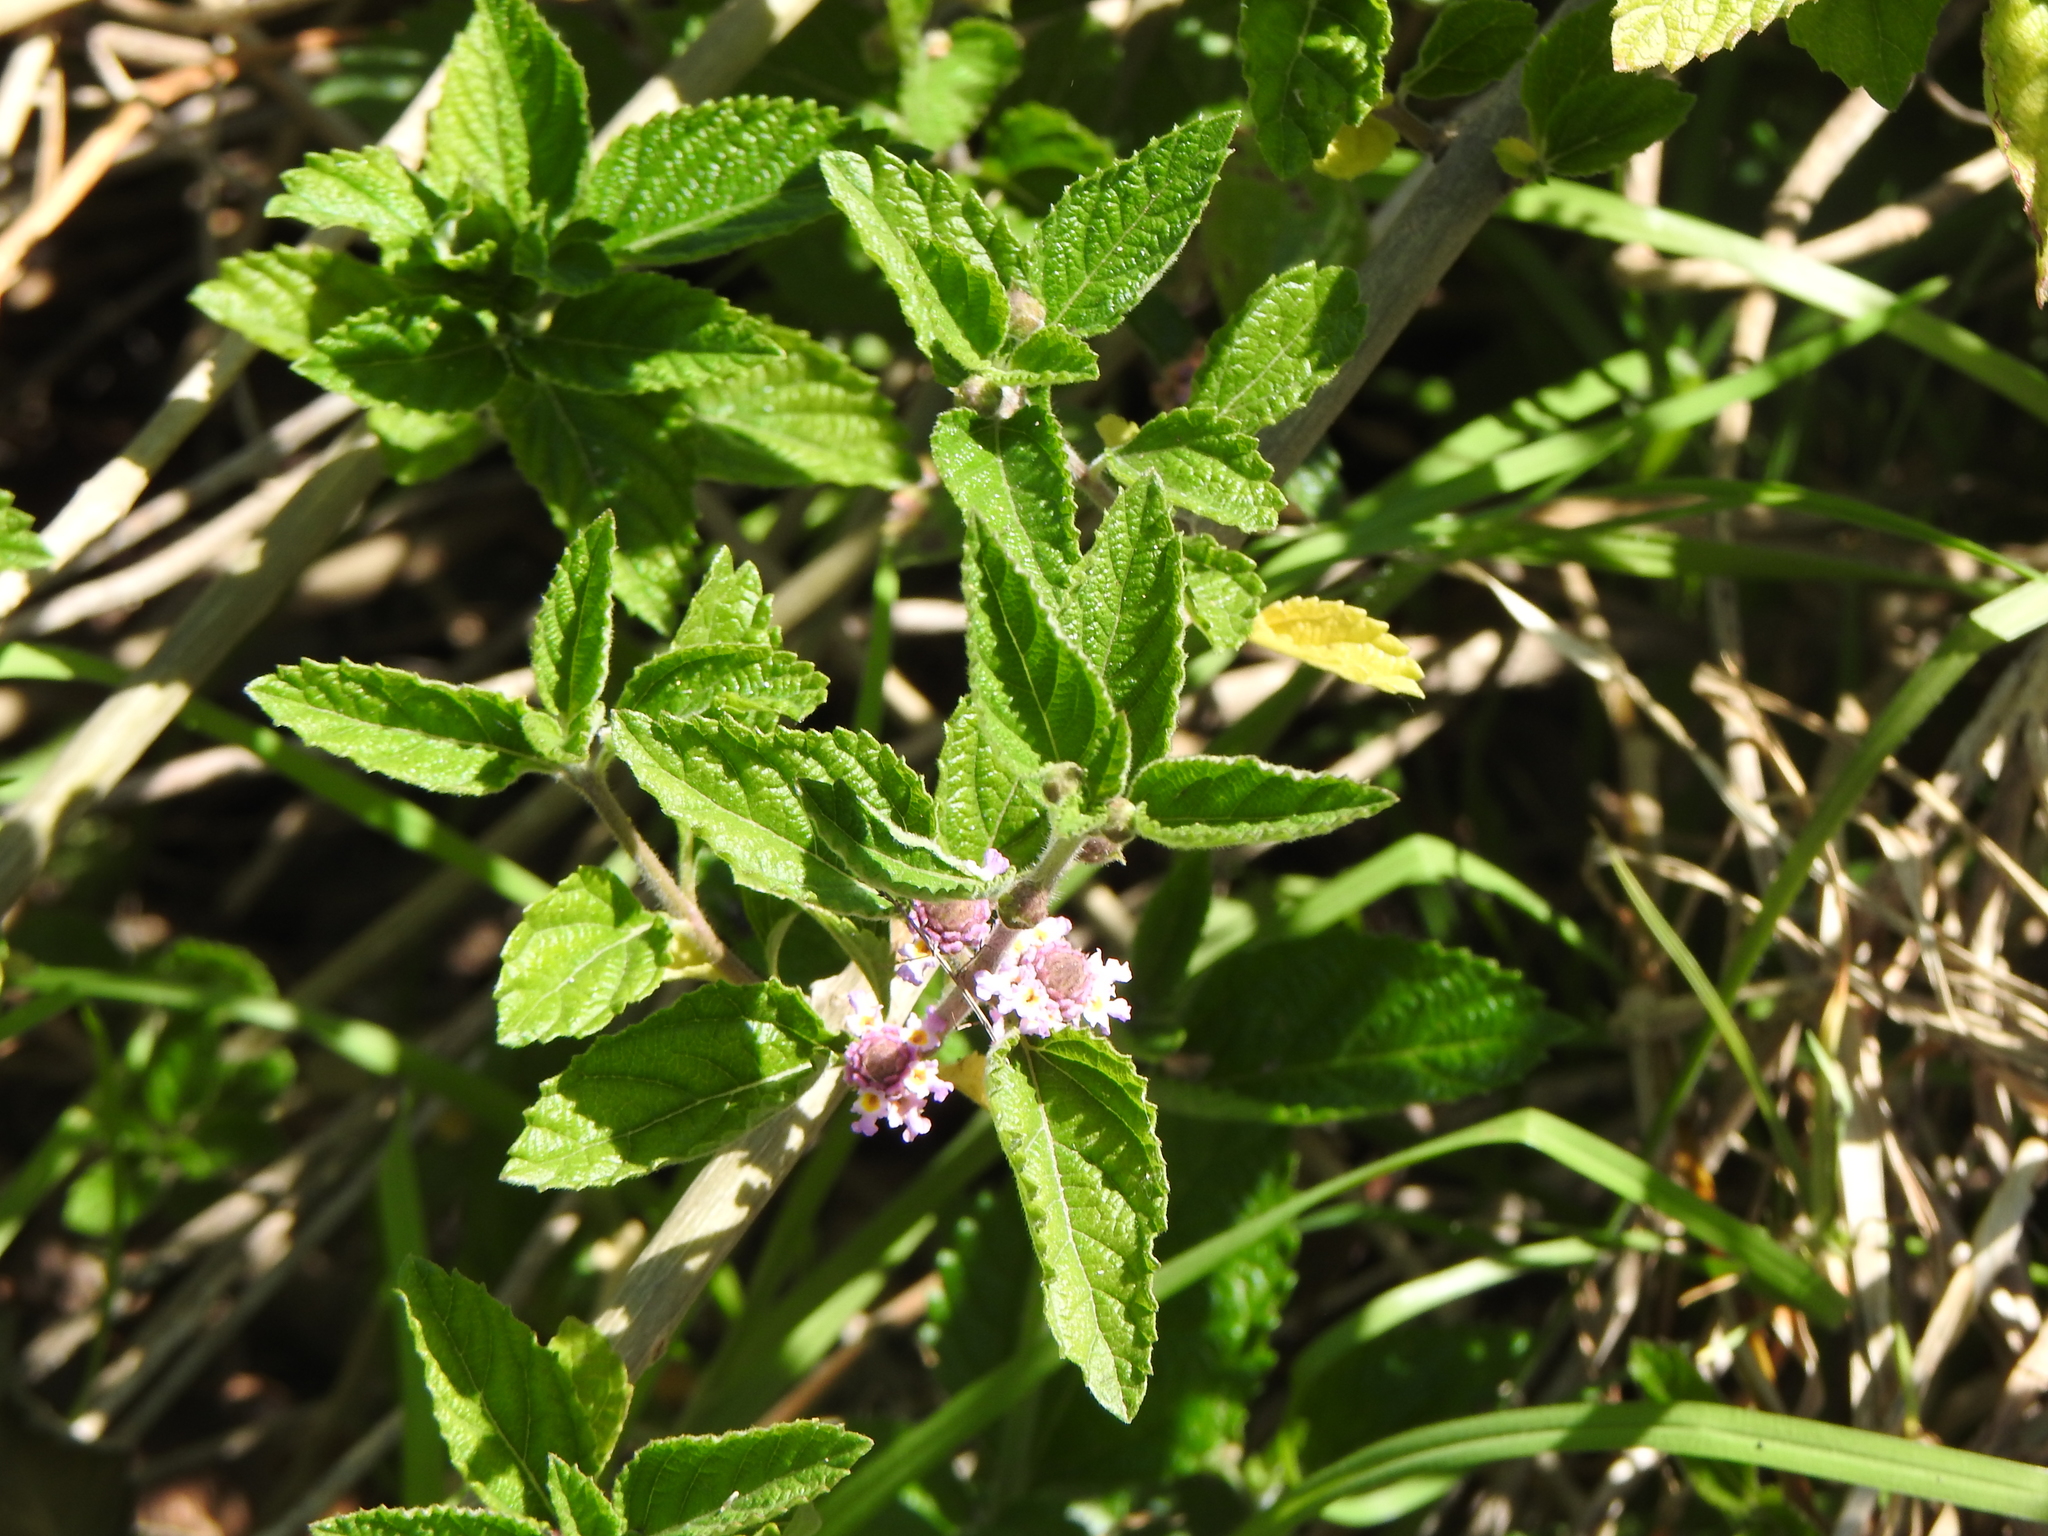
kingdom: Plantae
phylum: Tracheophyta
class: Magnoliopsida
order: Lamiales
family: Verbenaceae
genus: Lippia
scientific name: Lippia alba
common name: Bushy matgrass
